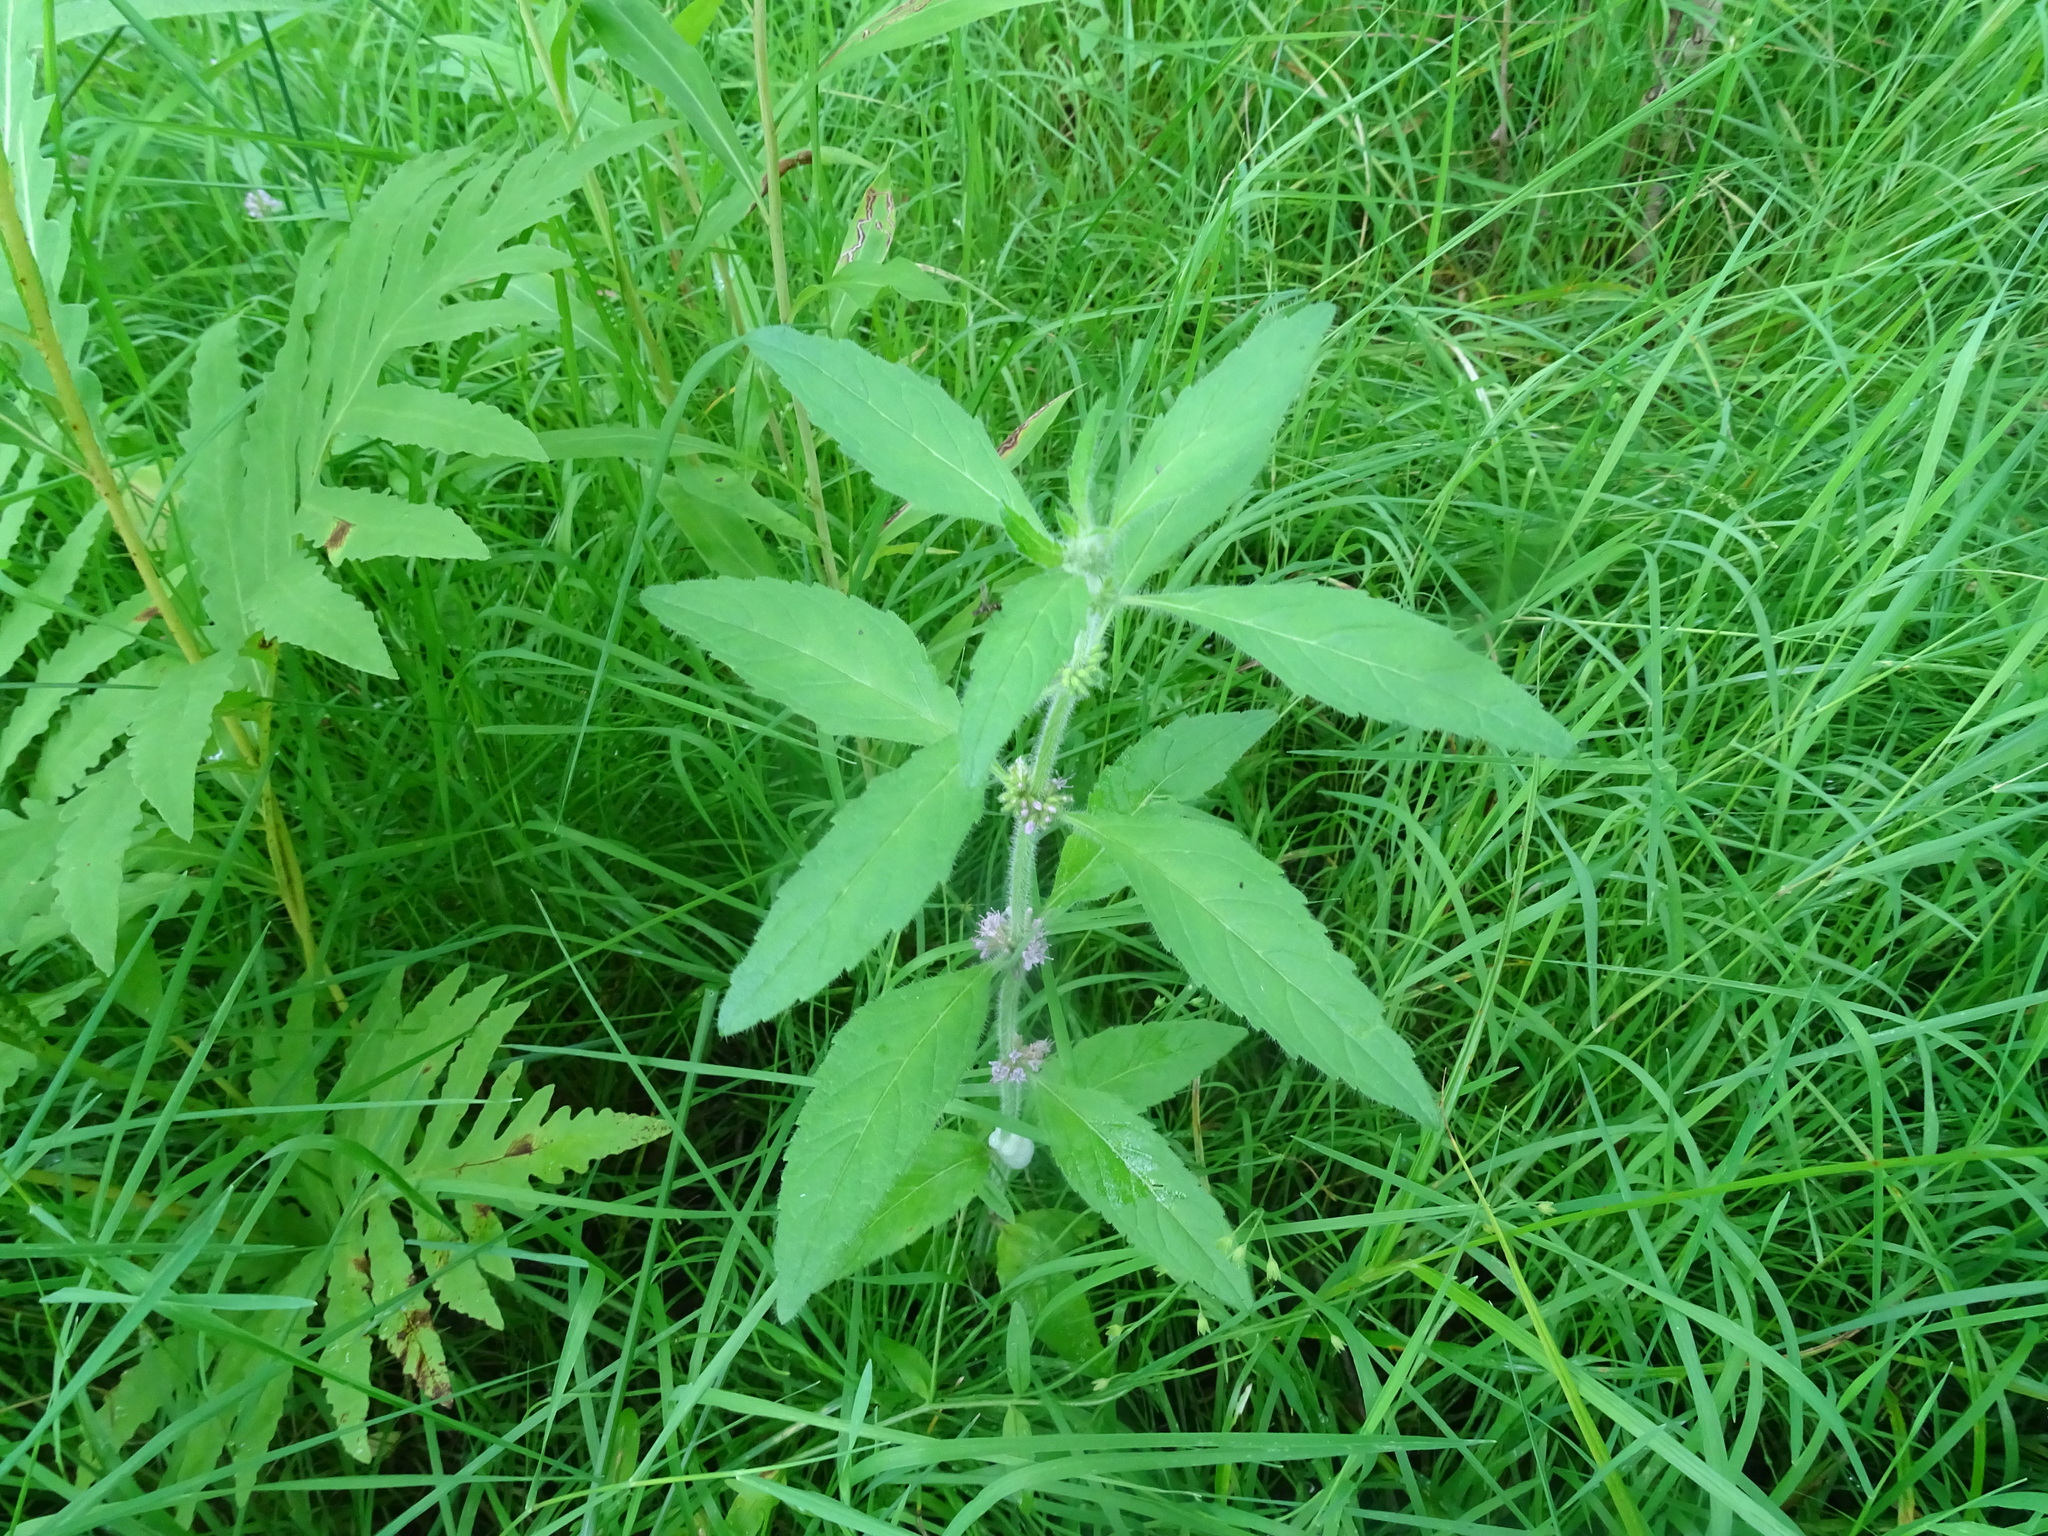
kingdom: Plantae
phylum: Tracheophyta
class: Magnoliopsida
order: Lamiales
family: Lamiaceae
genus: Mentha
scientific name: Mentha canadensis
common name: American corn mint
